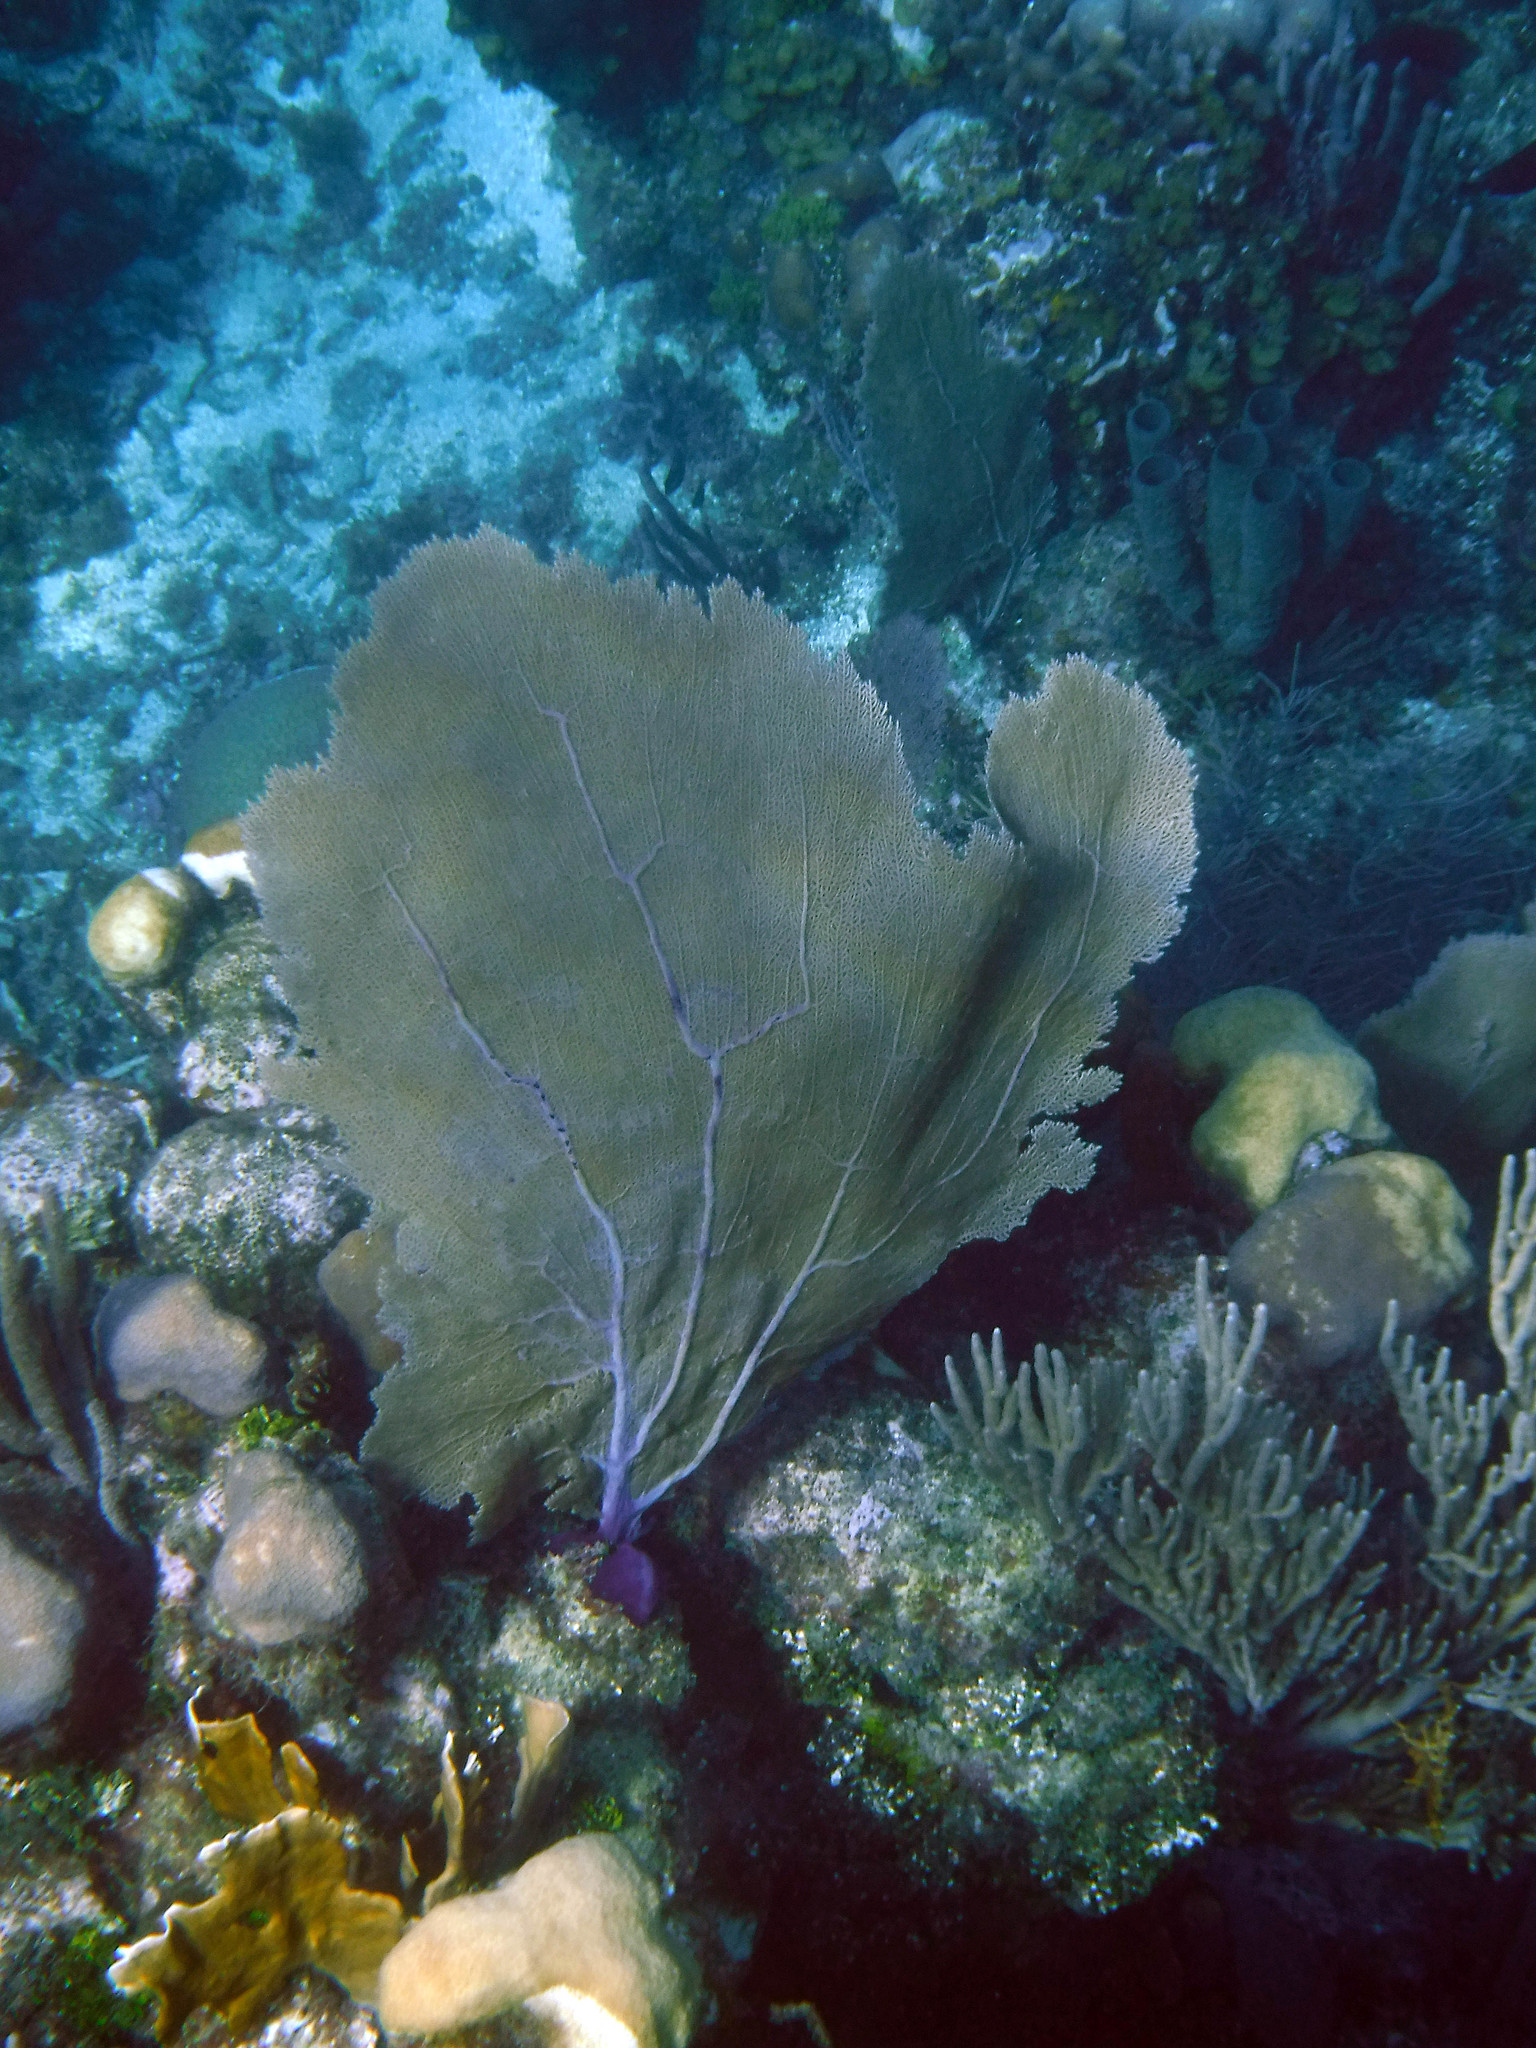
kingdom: Animalia
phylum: Cnidaria
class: Anthozoa
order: Malacalcyonacea
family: Gorgoniidae
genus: Gorgonia
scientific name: Gorgonia ventalina
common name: Common sea fan
